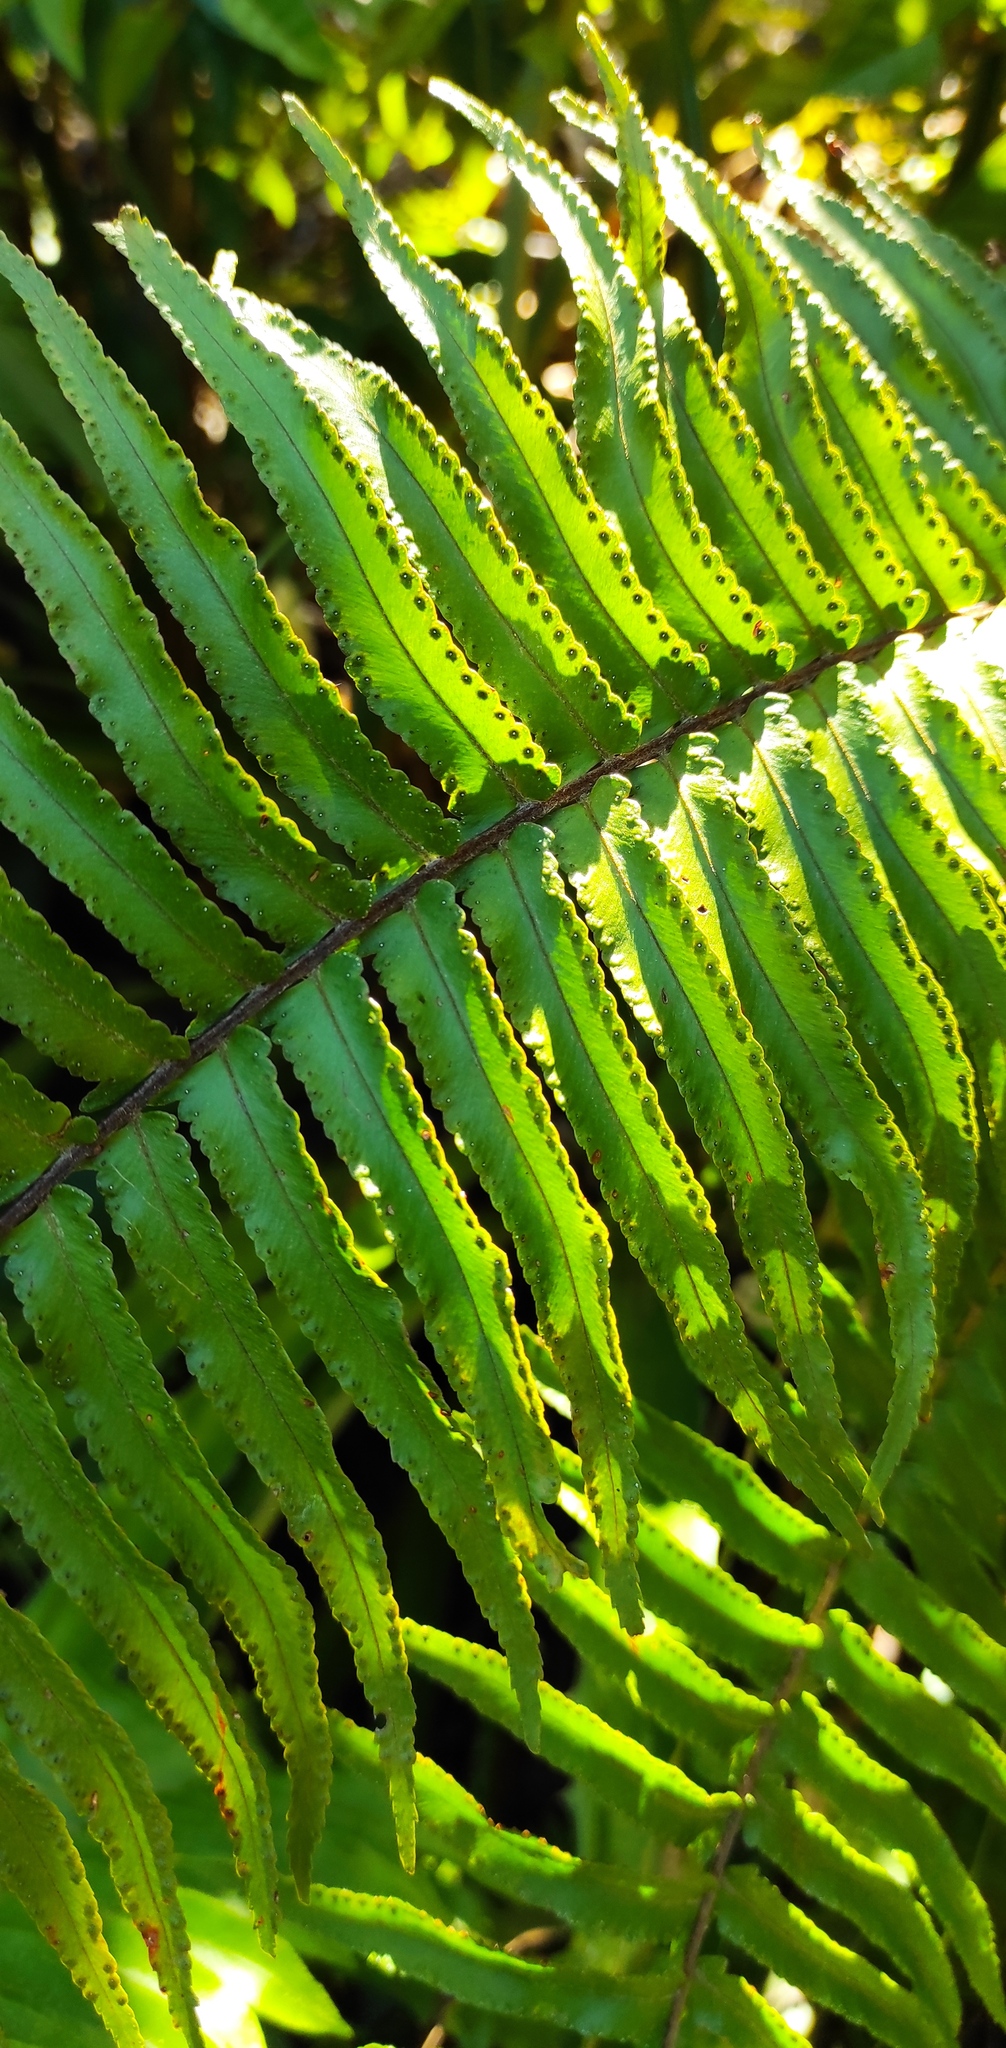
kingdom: Plantae
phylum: Tracheophyta
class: Polypodiopsida
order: Polypodiales
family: Nephrolepidaceae
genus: Nephrolepis
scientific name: Nephrolepis brownii
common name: Asian swordfern
